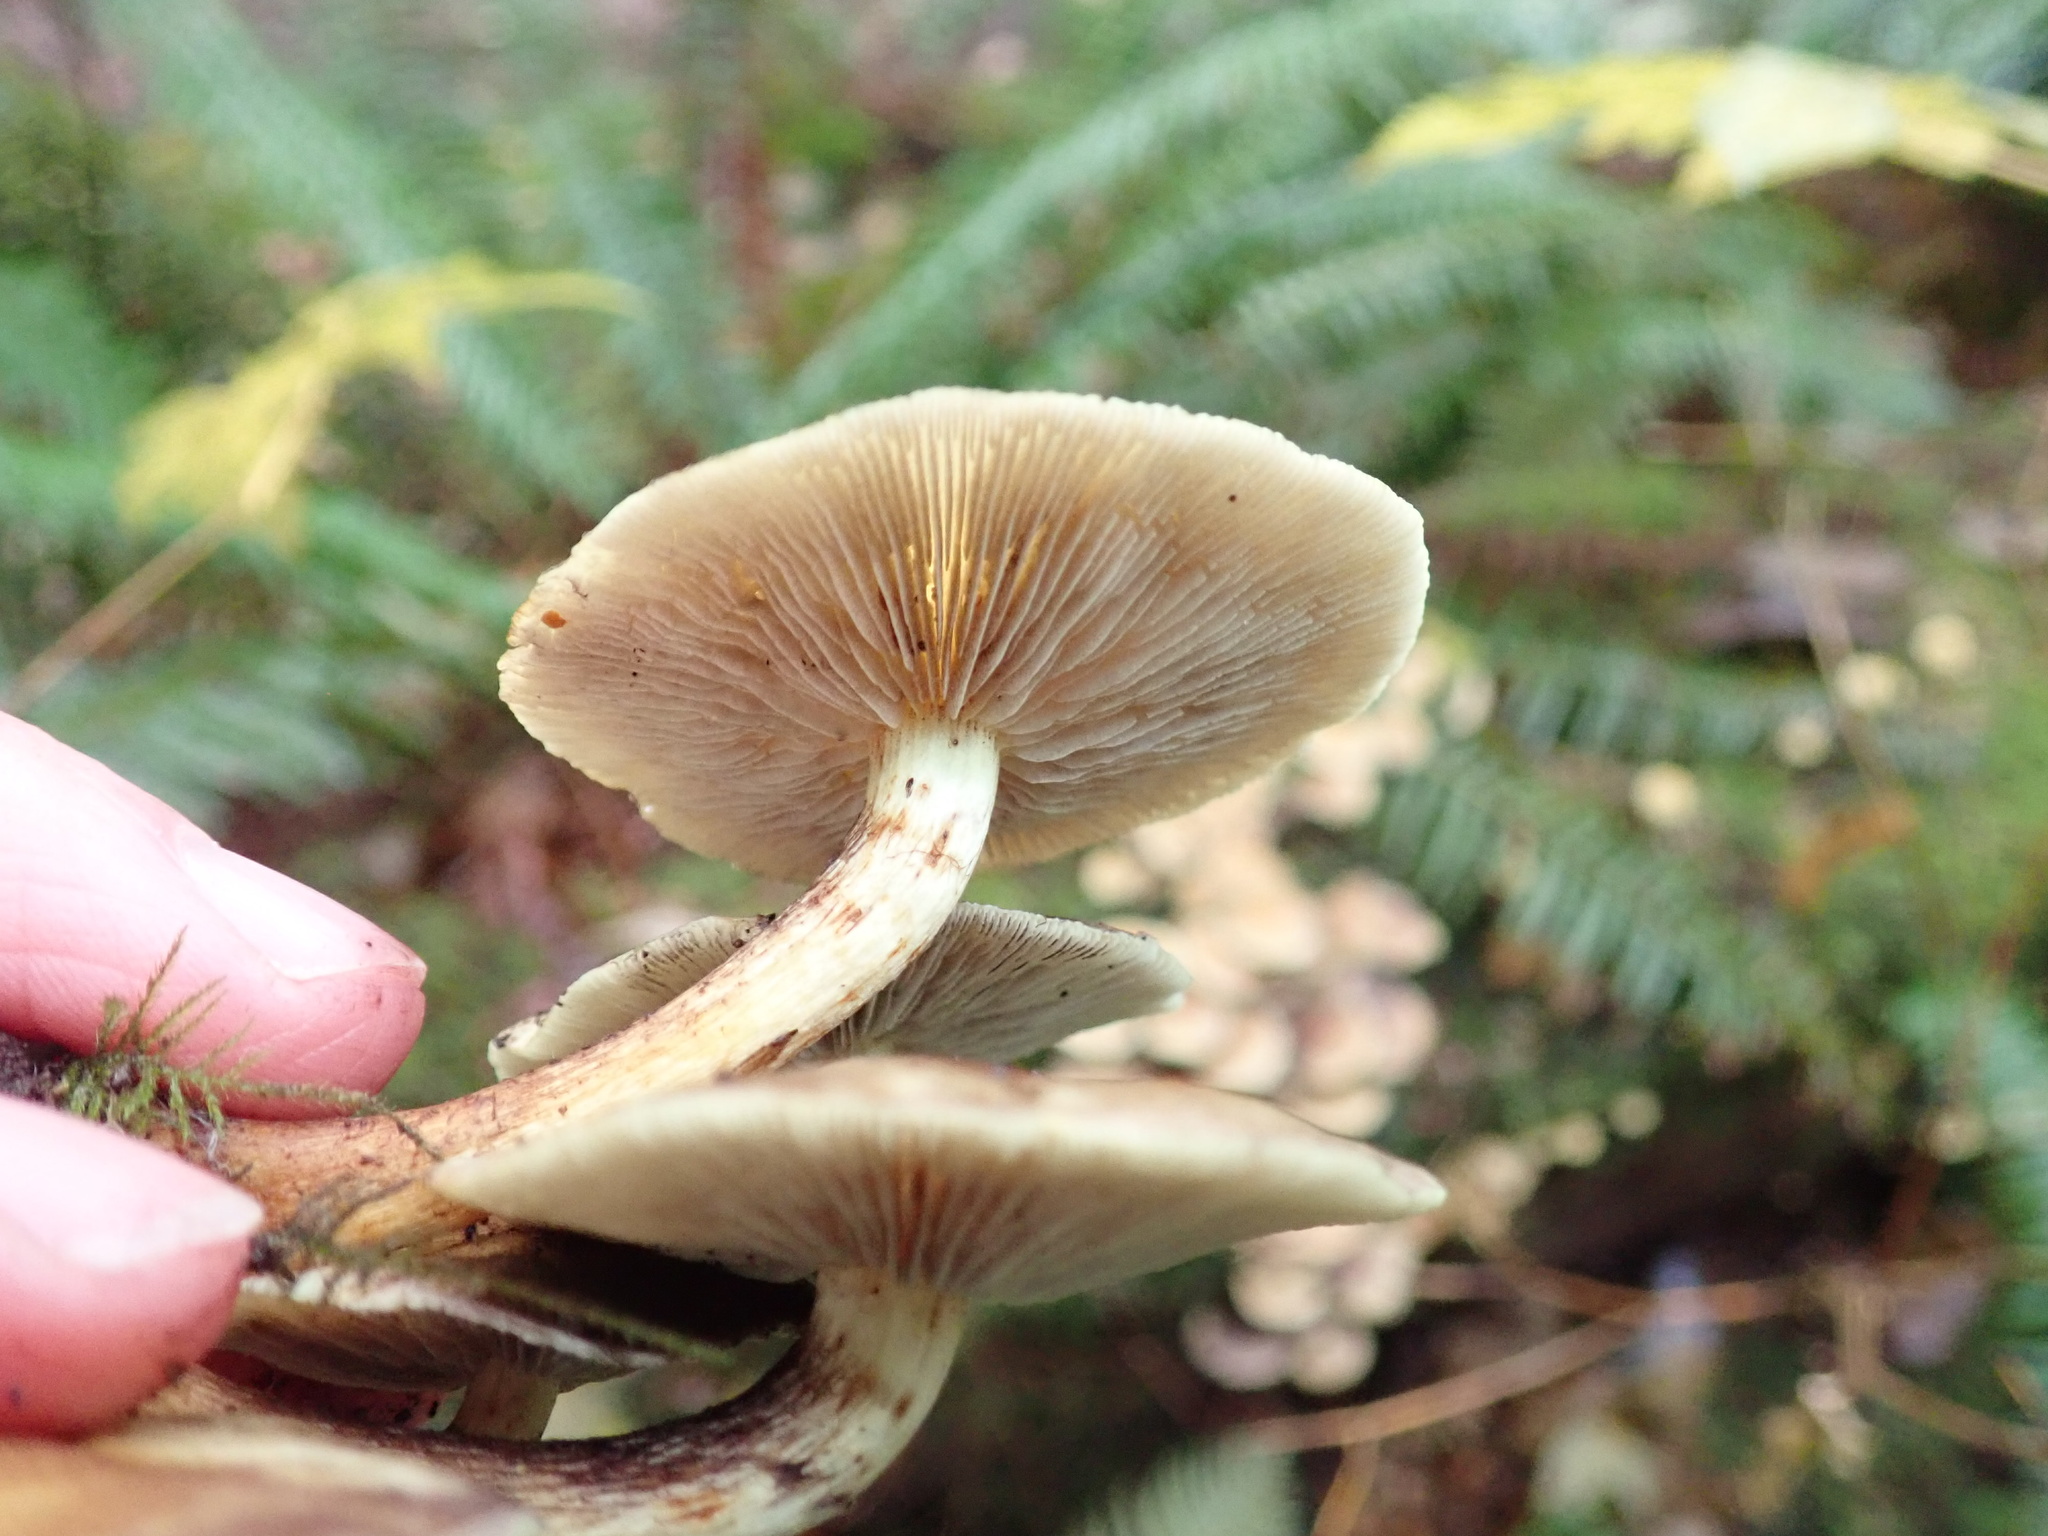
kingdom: Fungi
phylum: Basidiomycota
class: Agaricomycetes
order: Agaricales
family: Strophariaceae
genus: Hypholoma
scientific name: Hypholoma fasciculare
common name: Sulphur tuft
